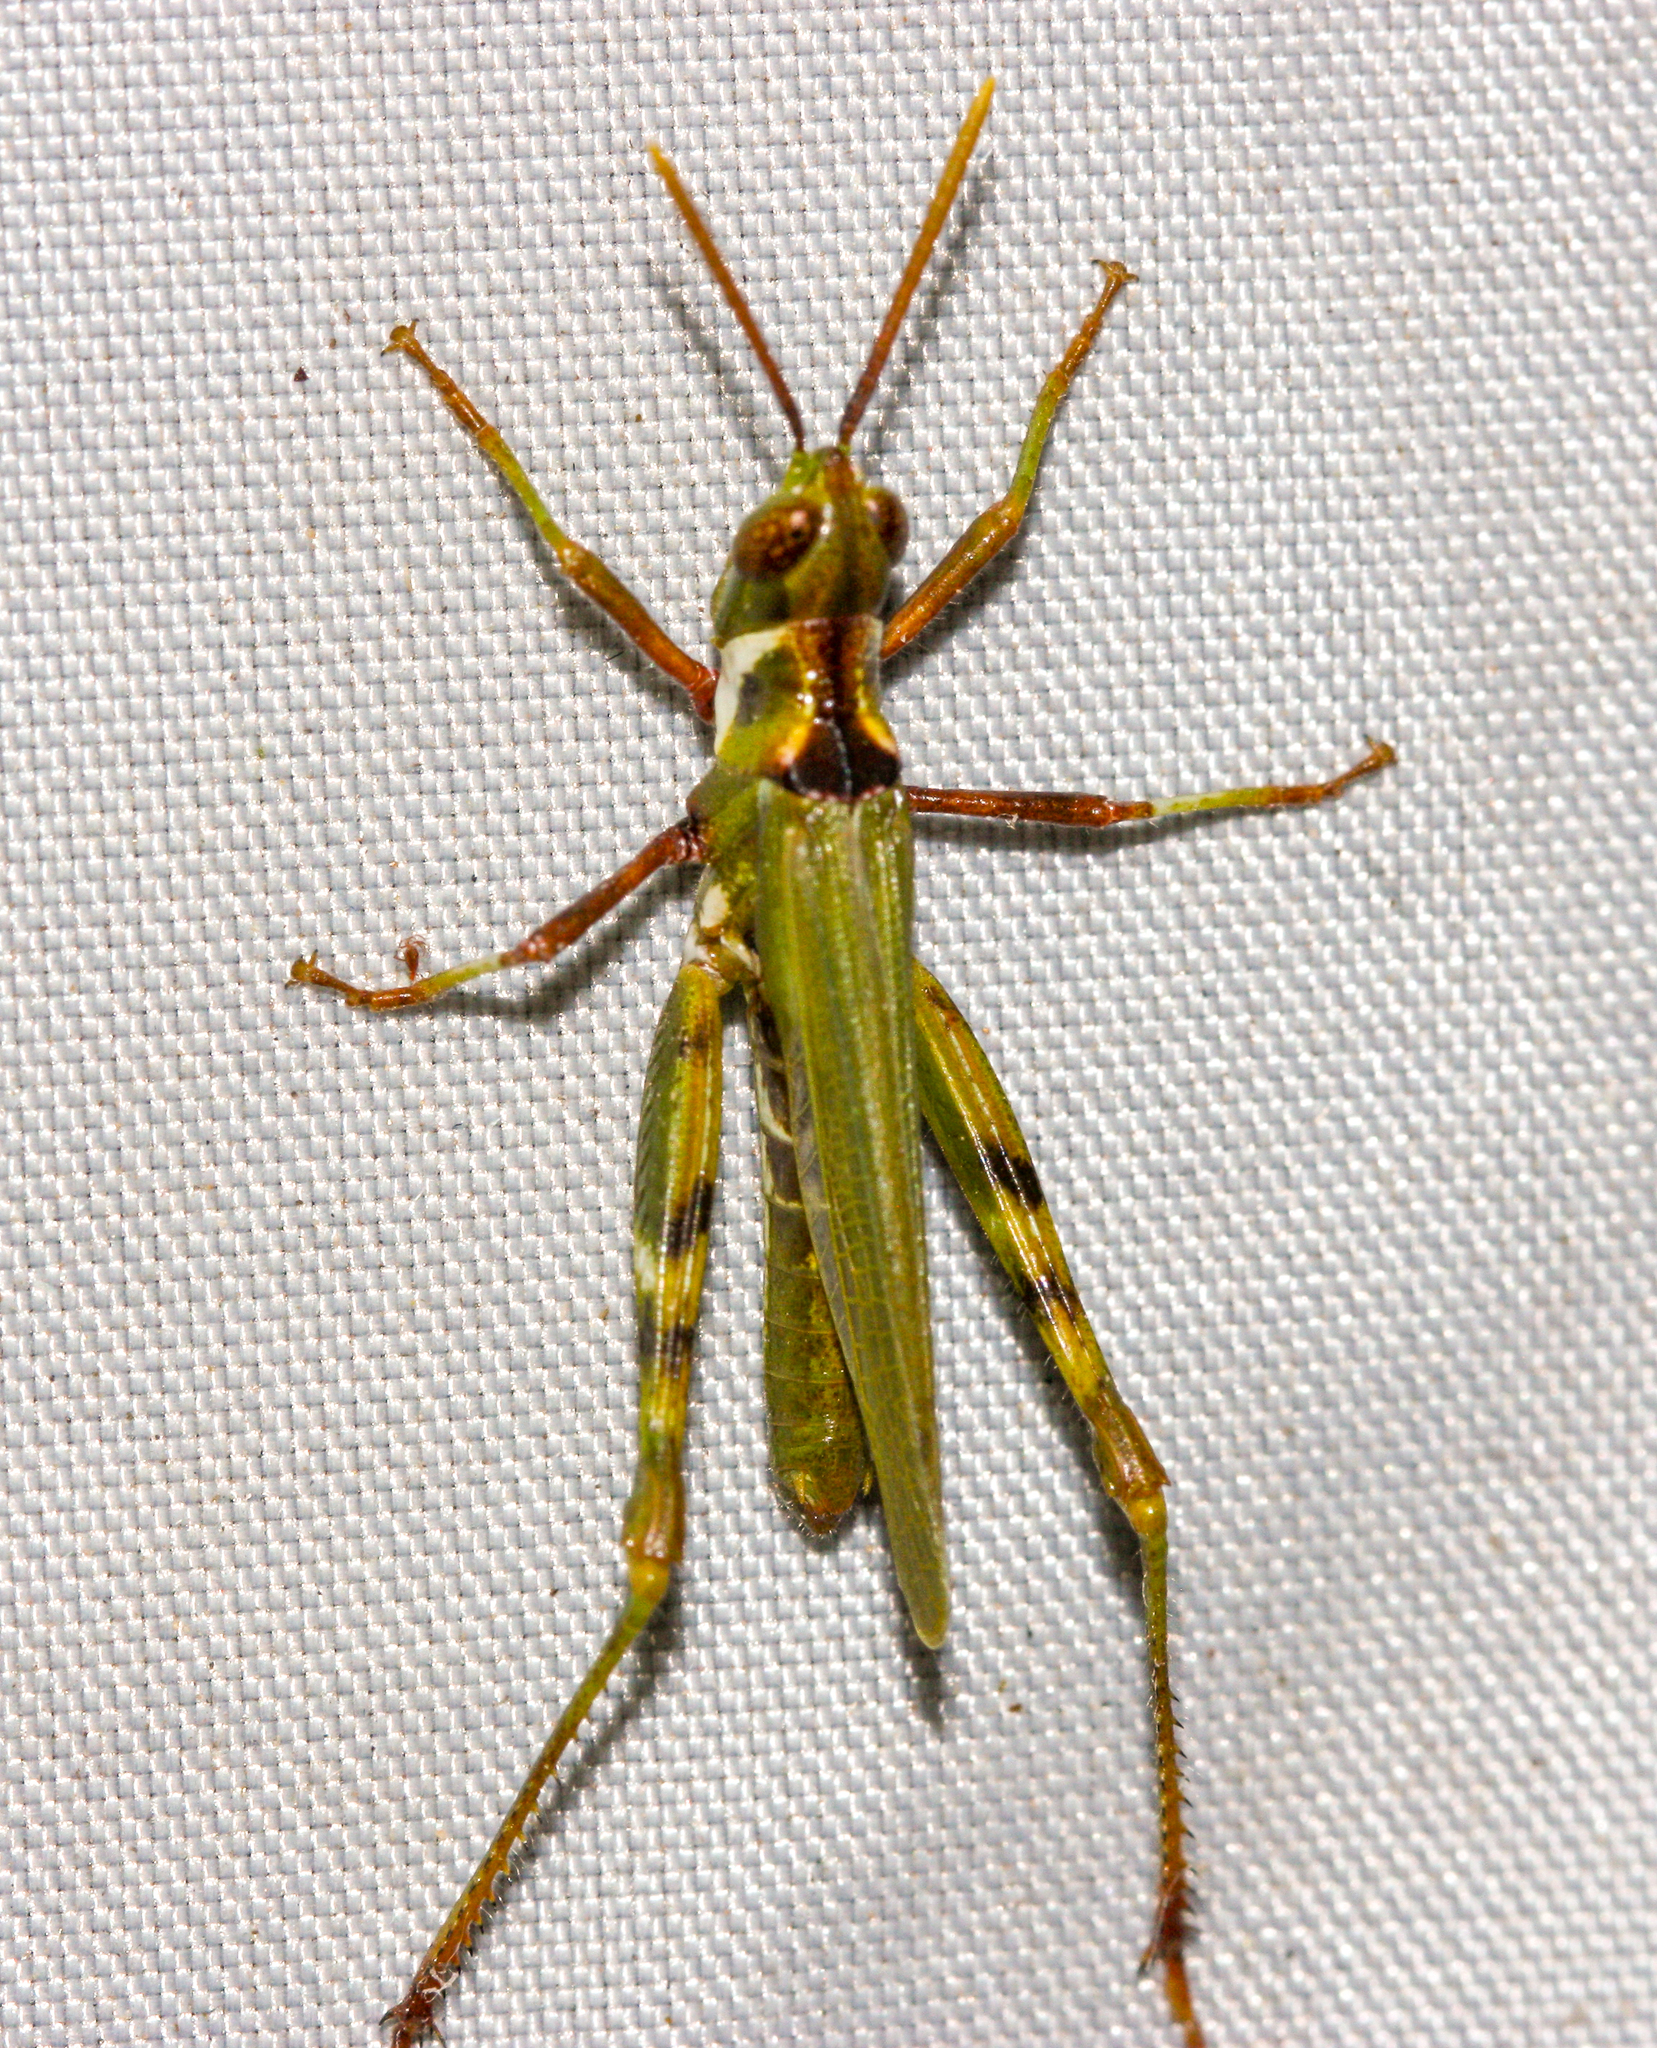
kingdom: Animalia
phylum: Arthropoda
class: Insecta
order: Orthoptera
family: Acrididae
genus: Bootettix
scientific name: Bootettix argentatus
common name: Creosote bush grasshopper
